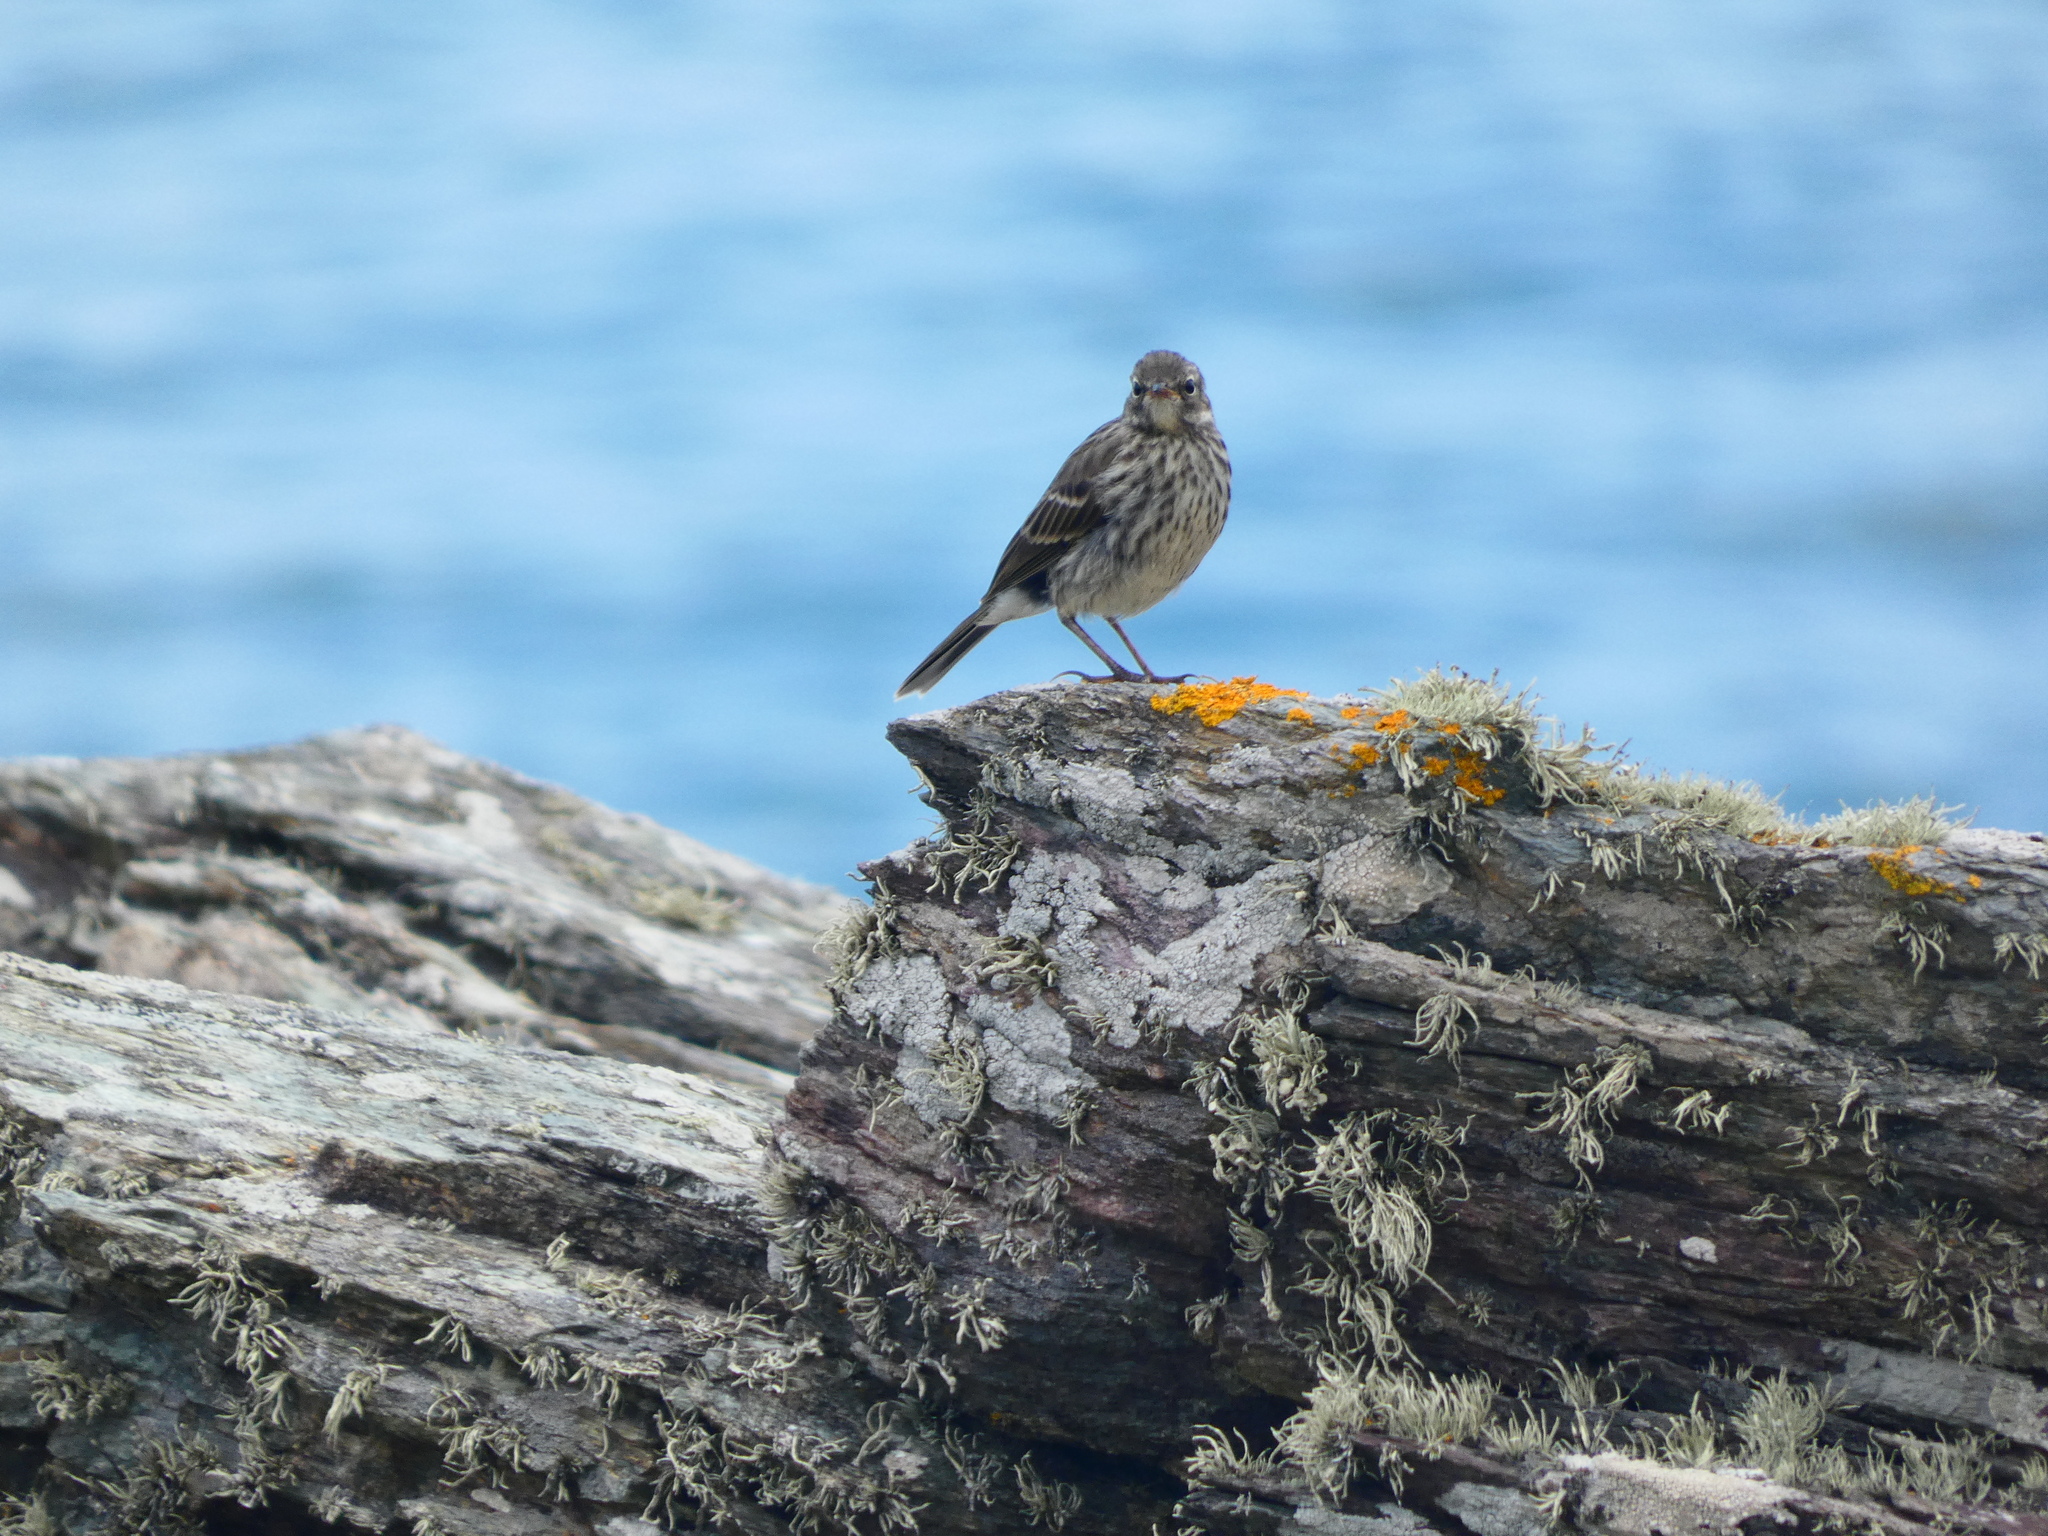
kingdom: Animalia
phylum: Chordata
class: Aves
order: Passeriformes
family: Motacillidae
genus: Anthus
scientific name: Anthus petrosus
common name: Eurasian rock pipit
